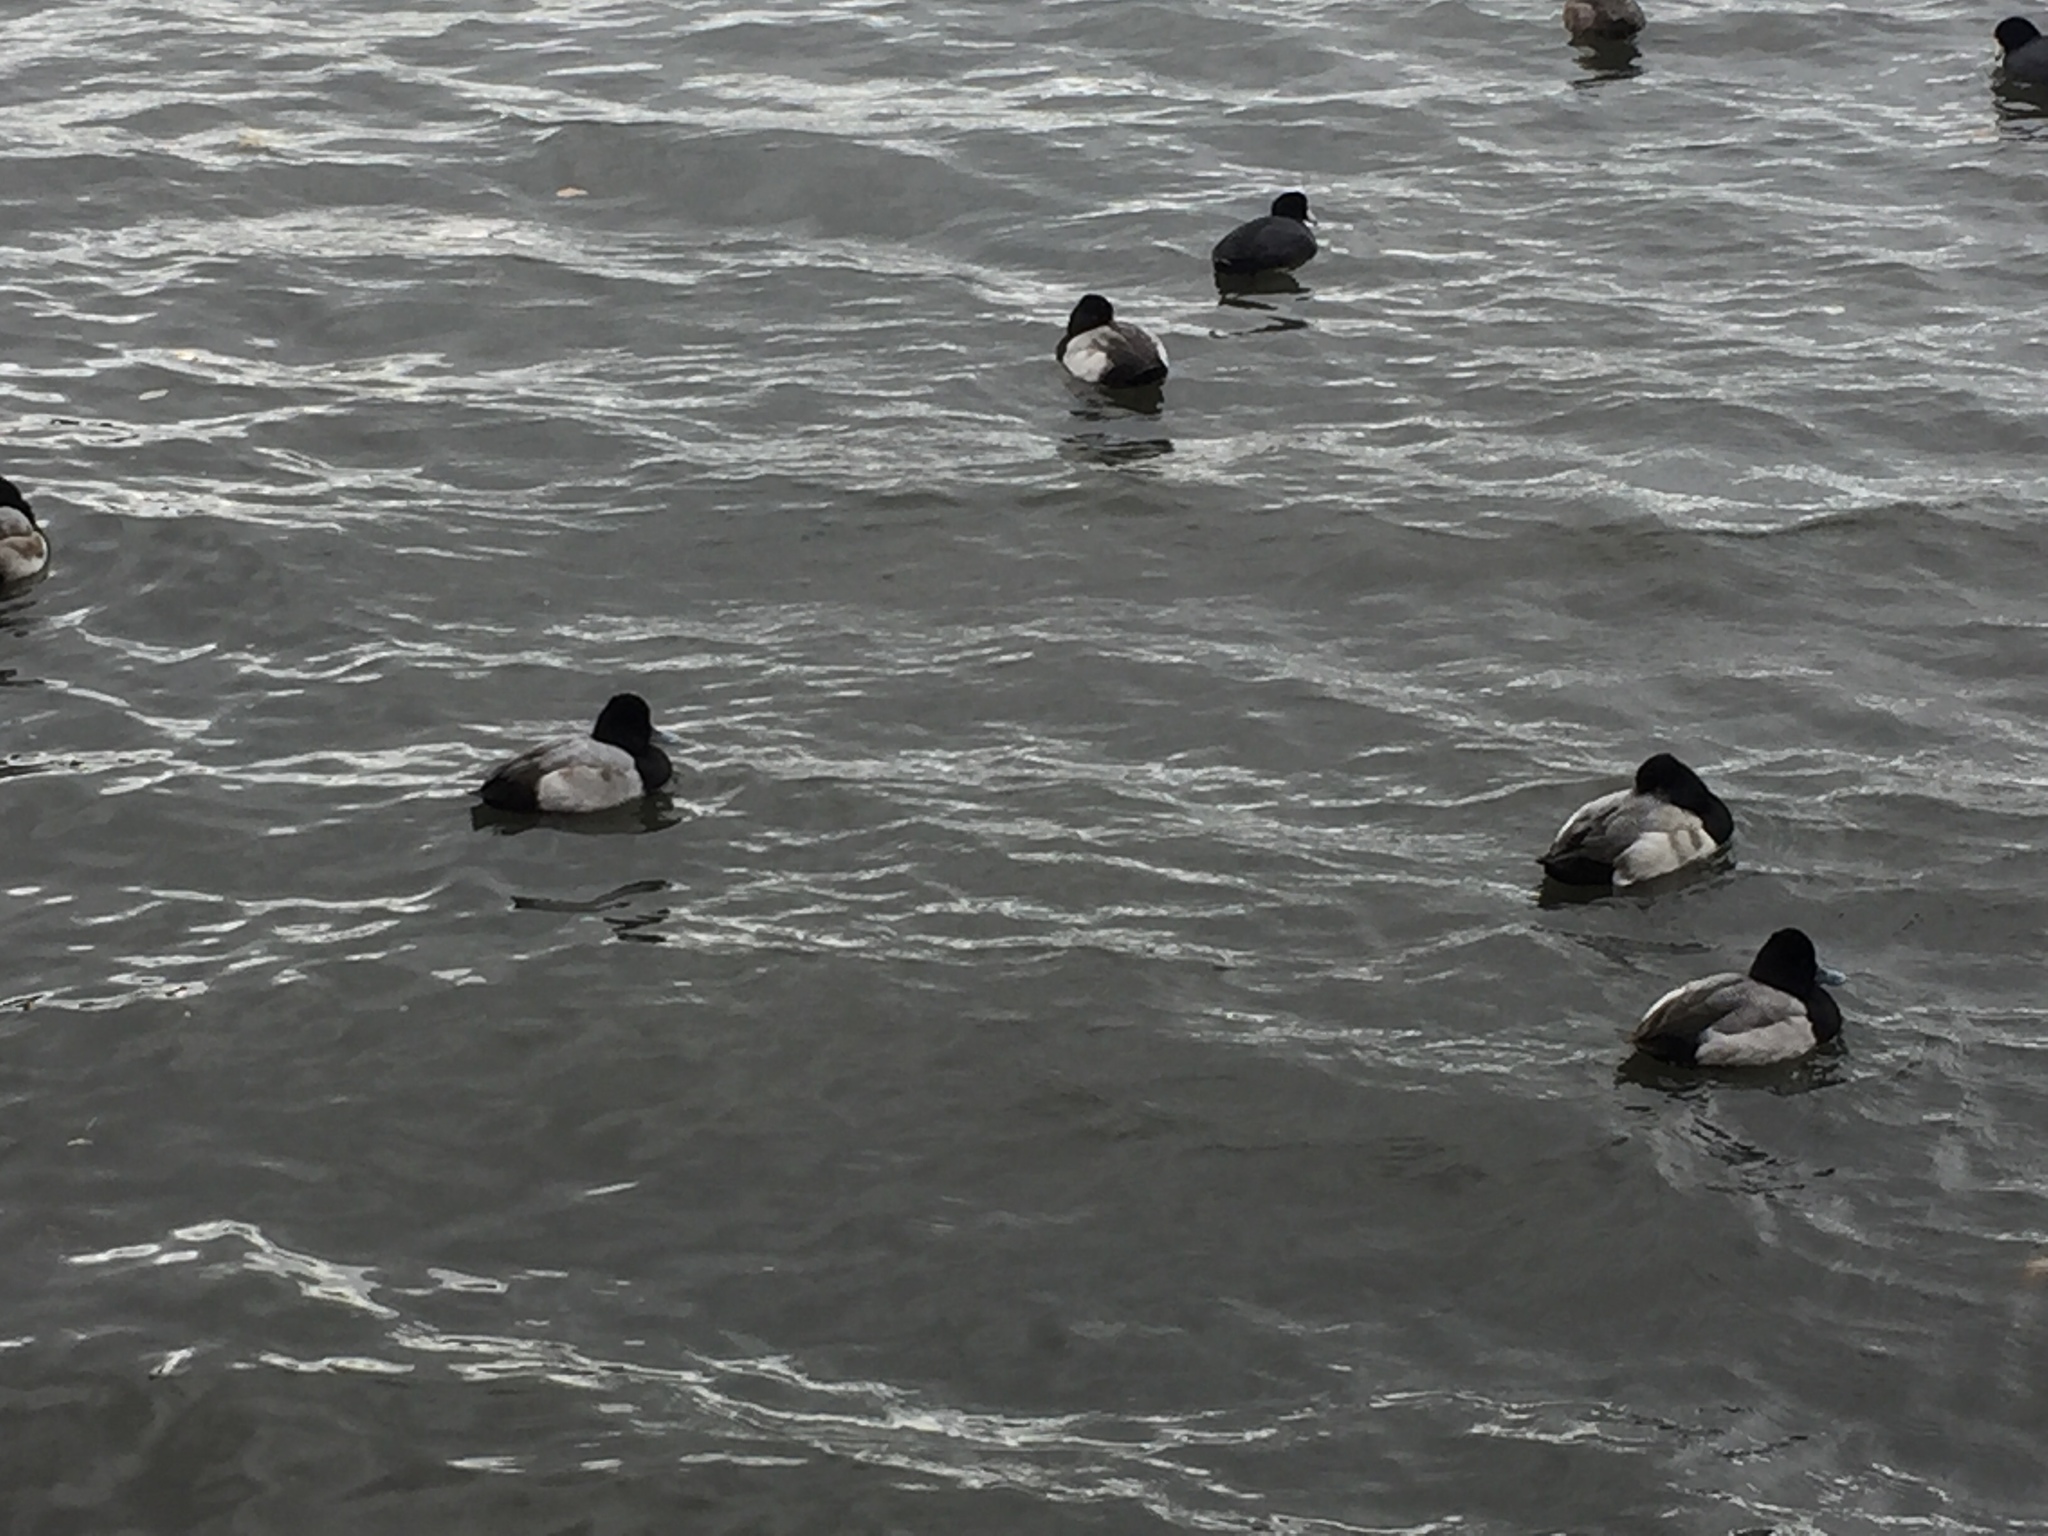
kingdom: Animalia
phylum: Chordata
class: Aves
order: Anseriformes
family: Anatidae
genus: Aythya
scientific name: Aythya affinis
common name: Lesser scaup
